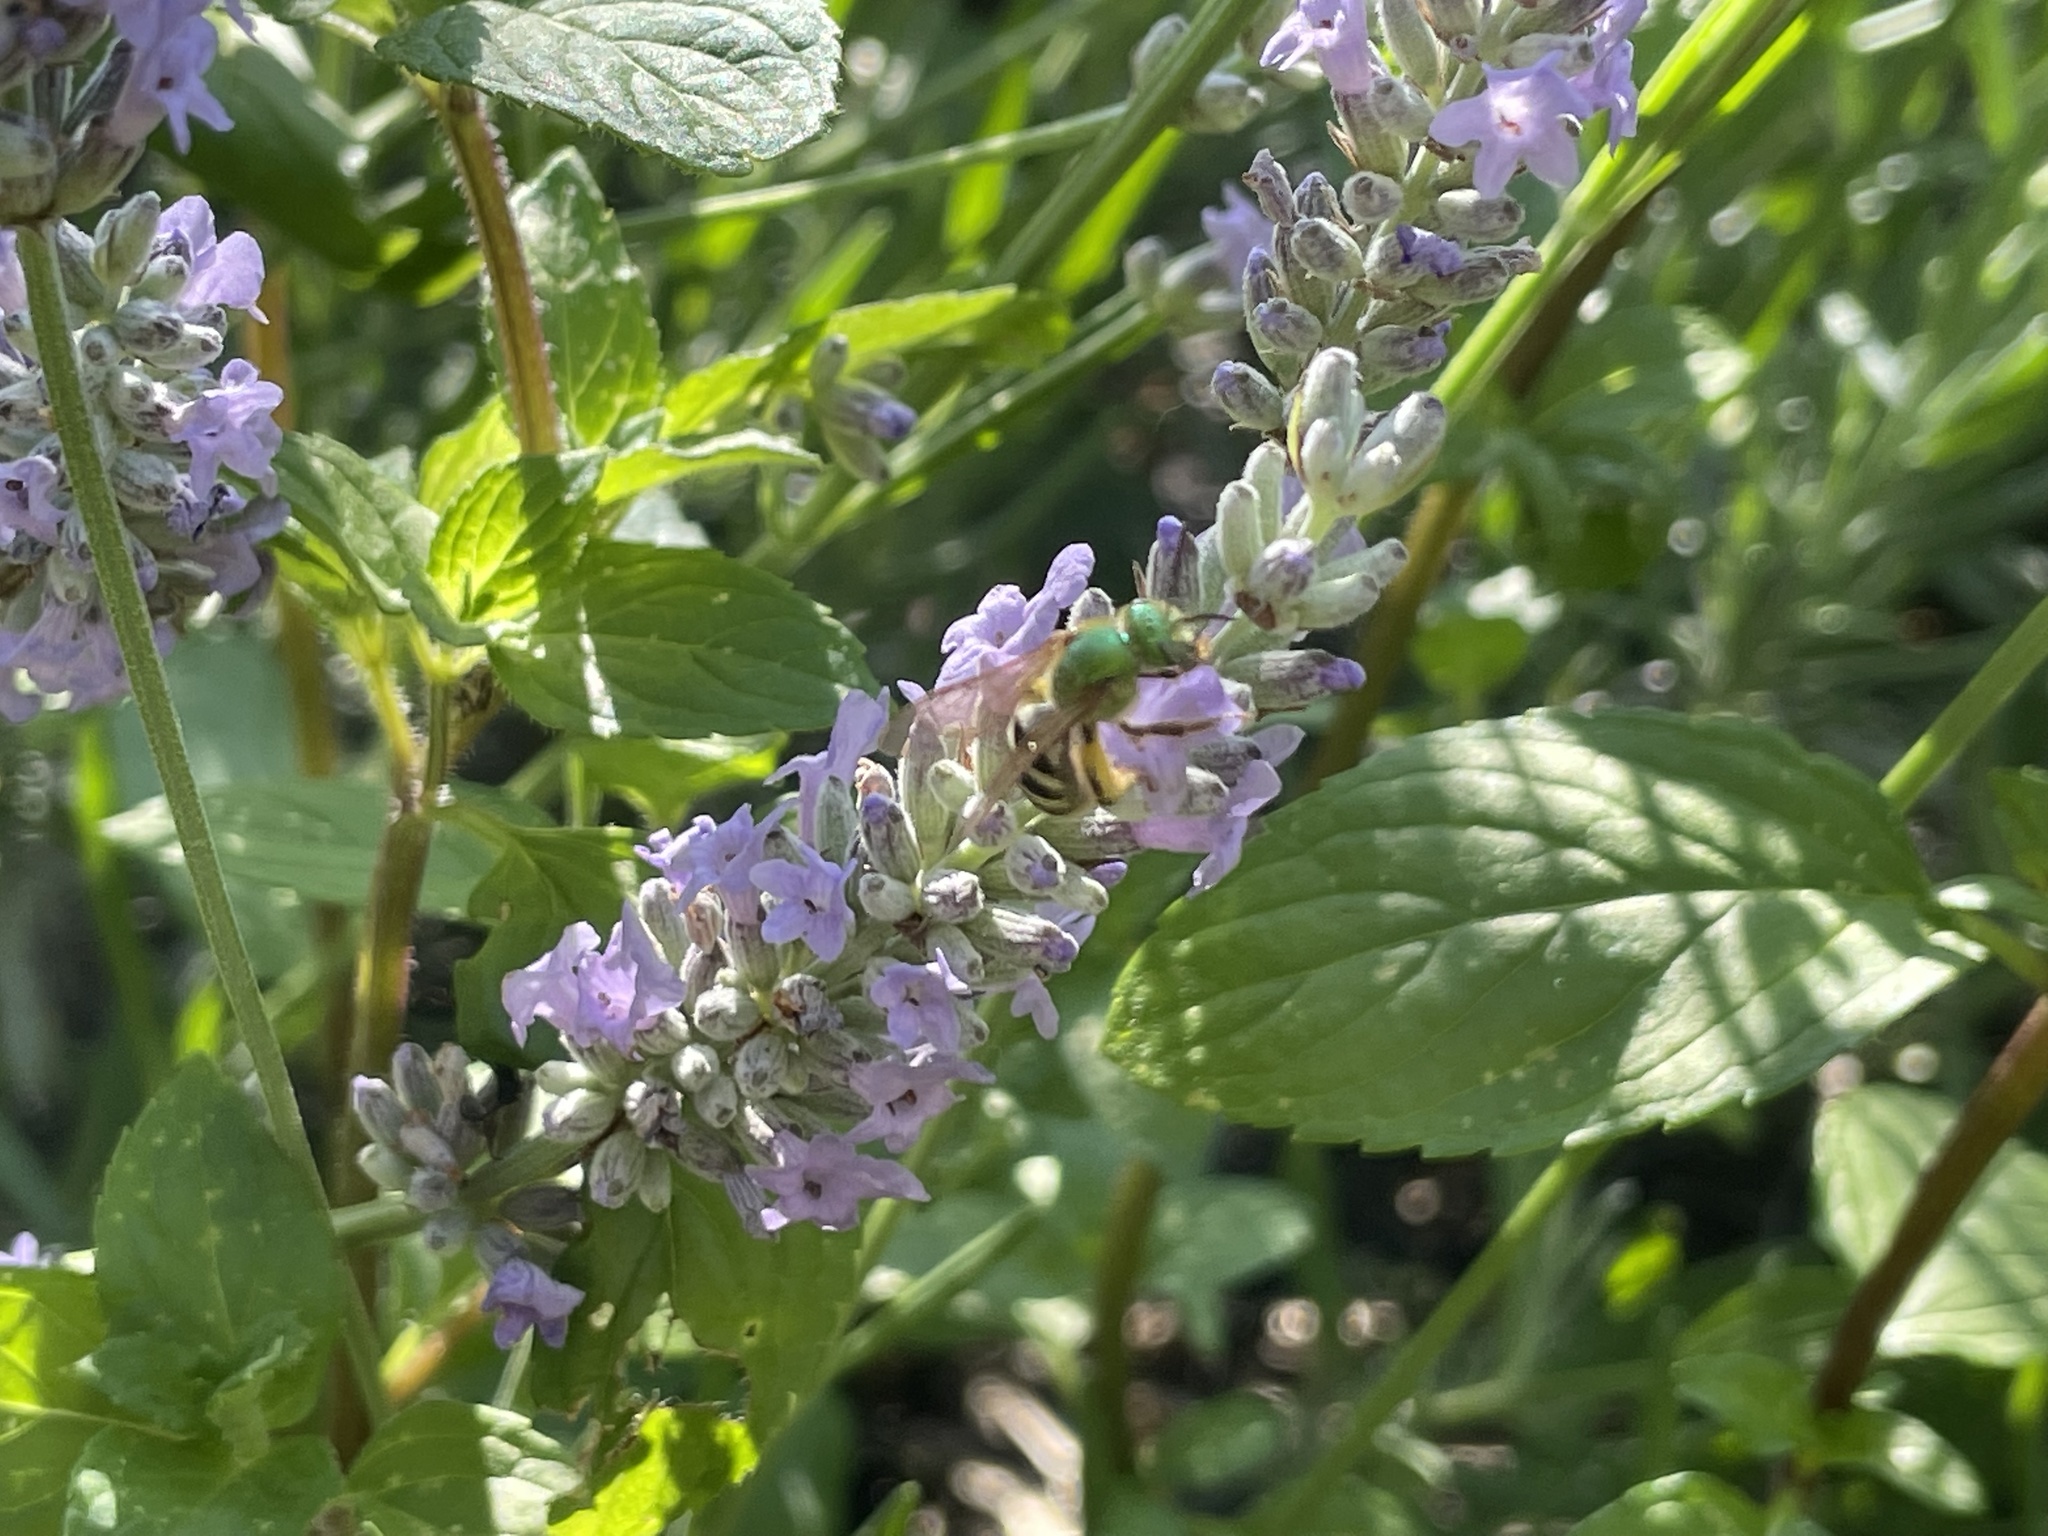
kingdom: Animalia
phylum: Arthropoda
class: Insecta
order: Hymenoptera
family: Halictidae
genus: Agapostemon
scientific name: Agapostemon virescens
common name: Bicolored striped sweat bee
